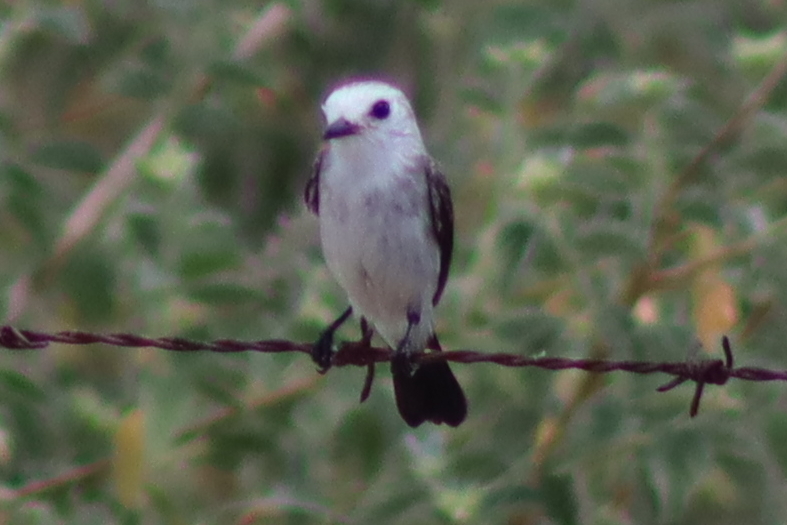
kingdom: Animalia
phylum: Chordata
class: Aves
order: Passeriformes
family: Tyrannidae
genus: Arundinicola
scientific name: Arundinicola leucocephala
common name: White-headed marsh tyrant
